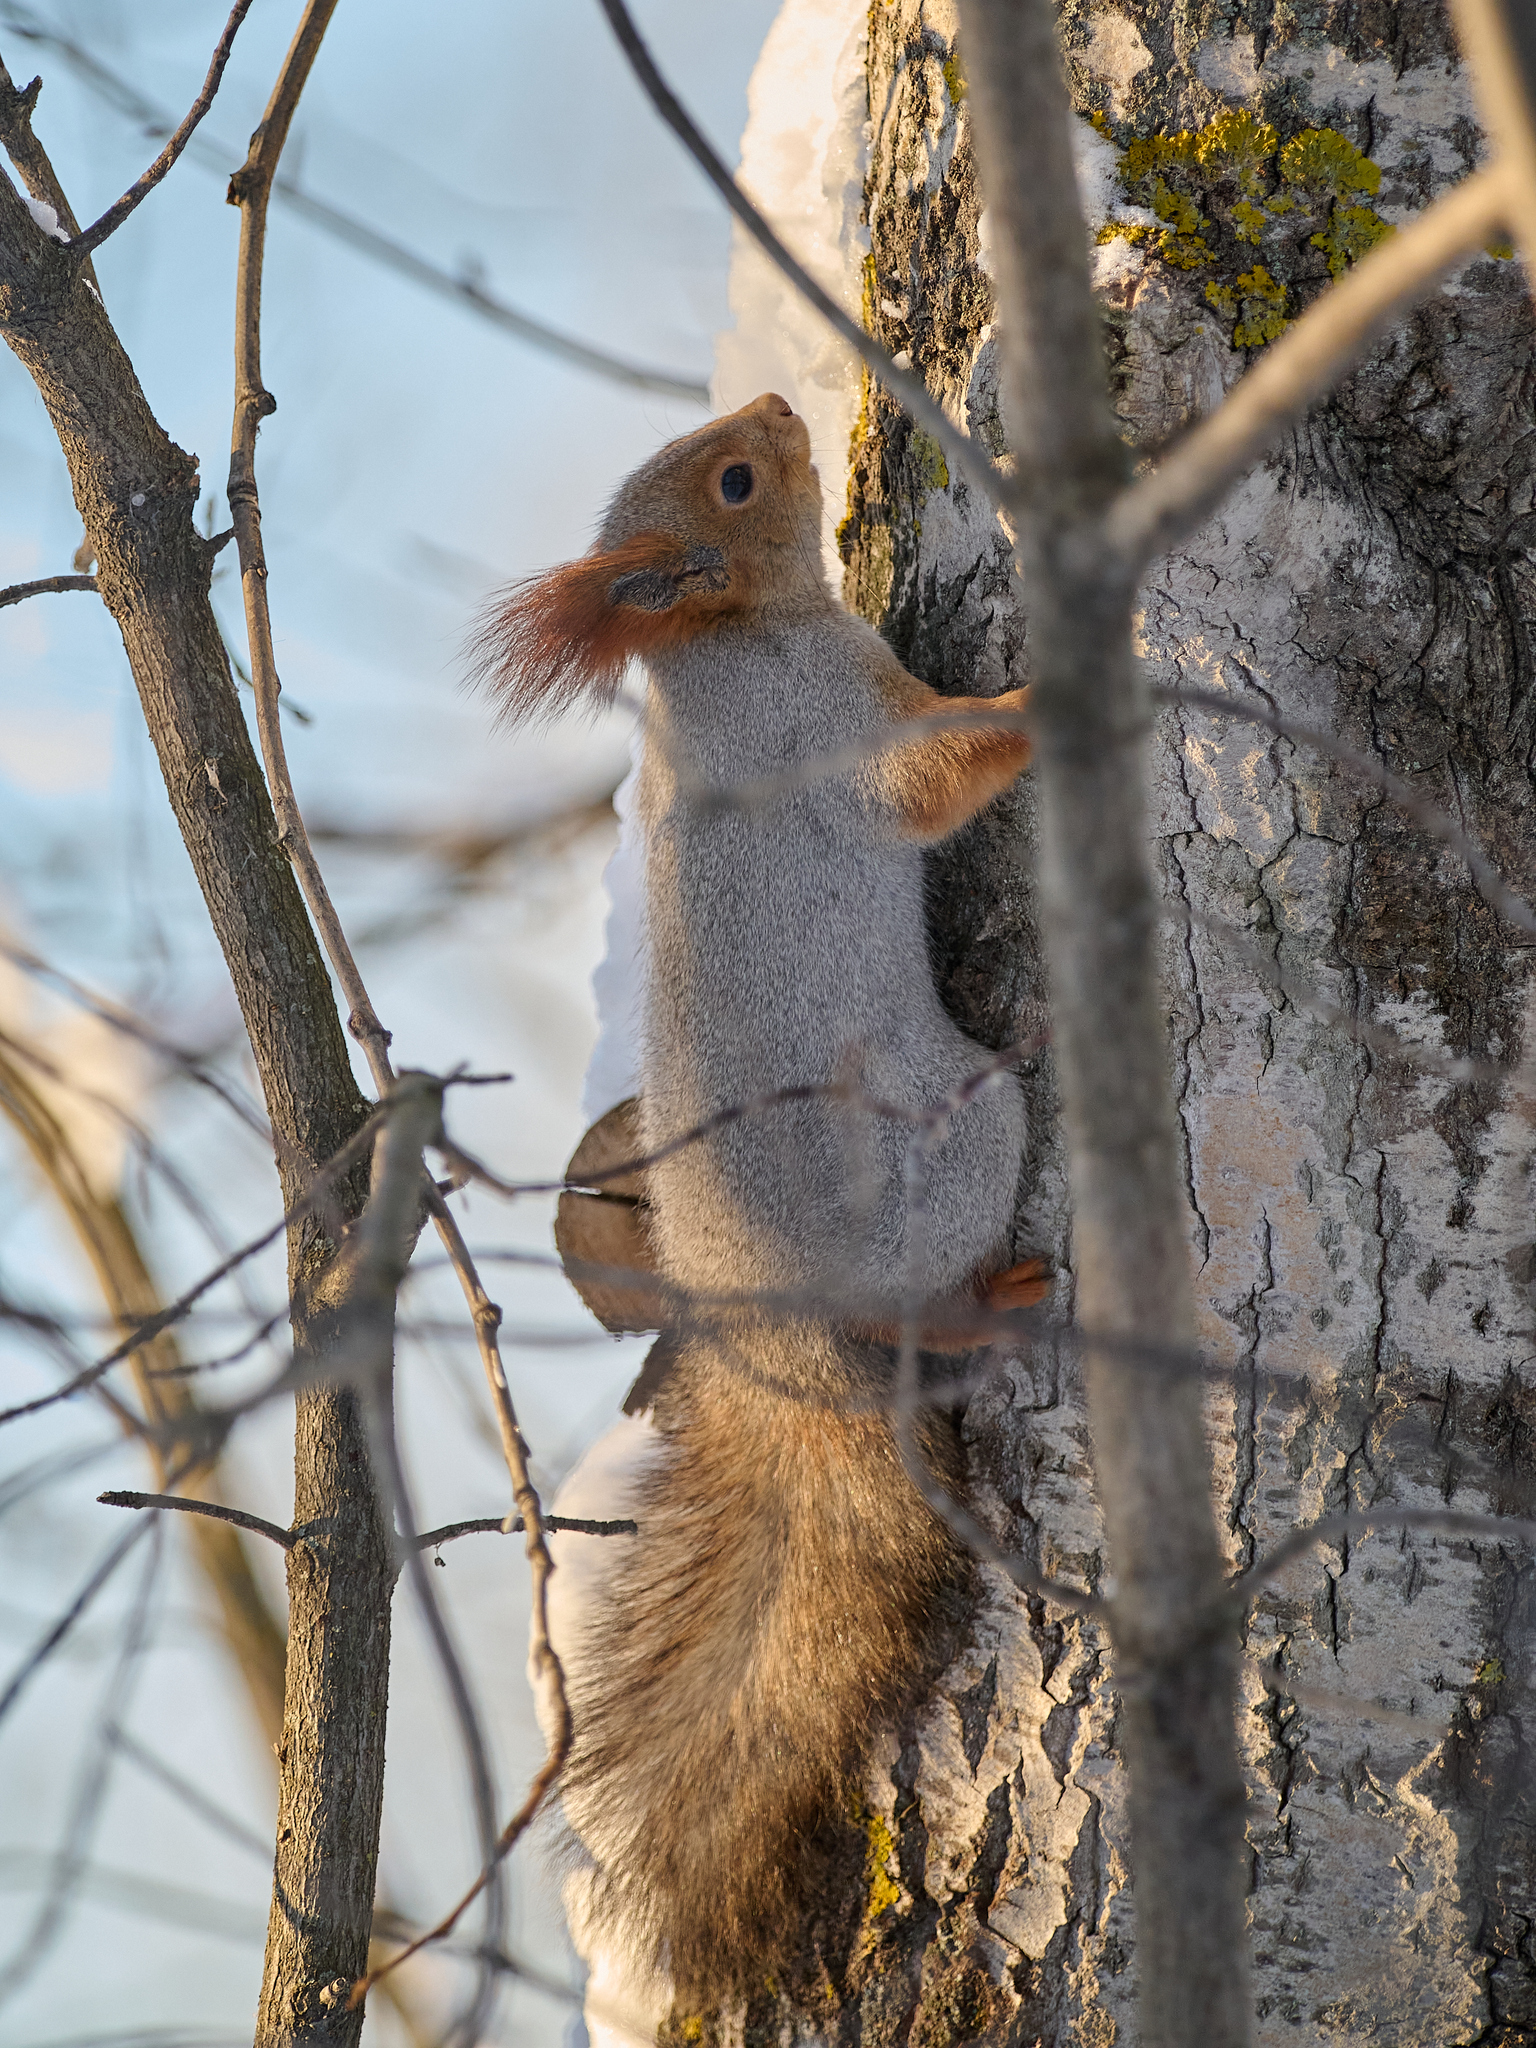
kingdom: Animalia
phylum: Chordata
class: Mammalia
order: Rodentia
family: Sciuridae
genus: Sciurus
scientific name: Sciurus vulgaris
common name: Eurasian red squirrel
